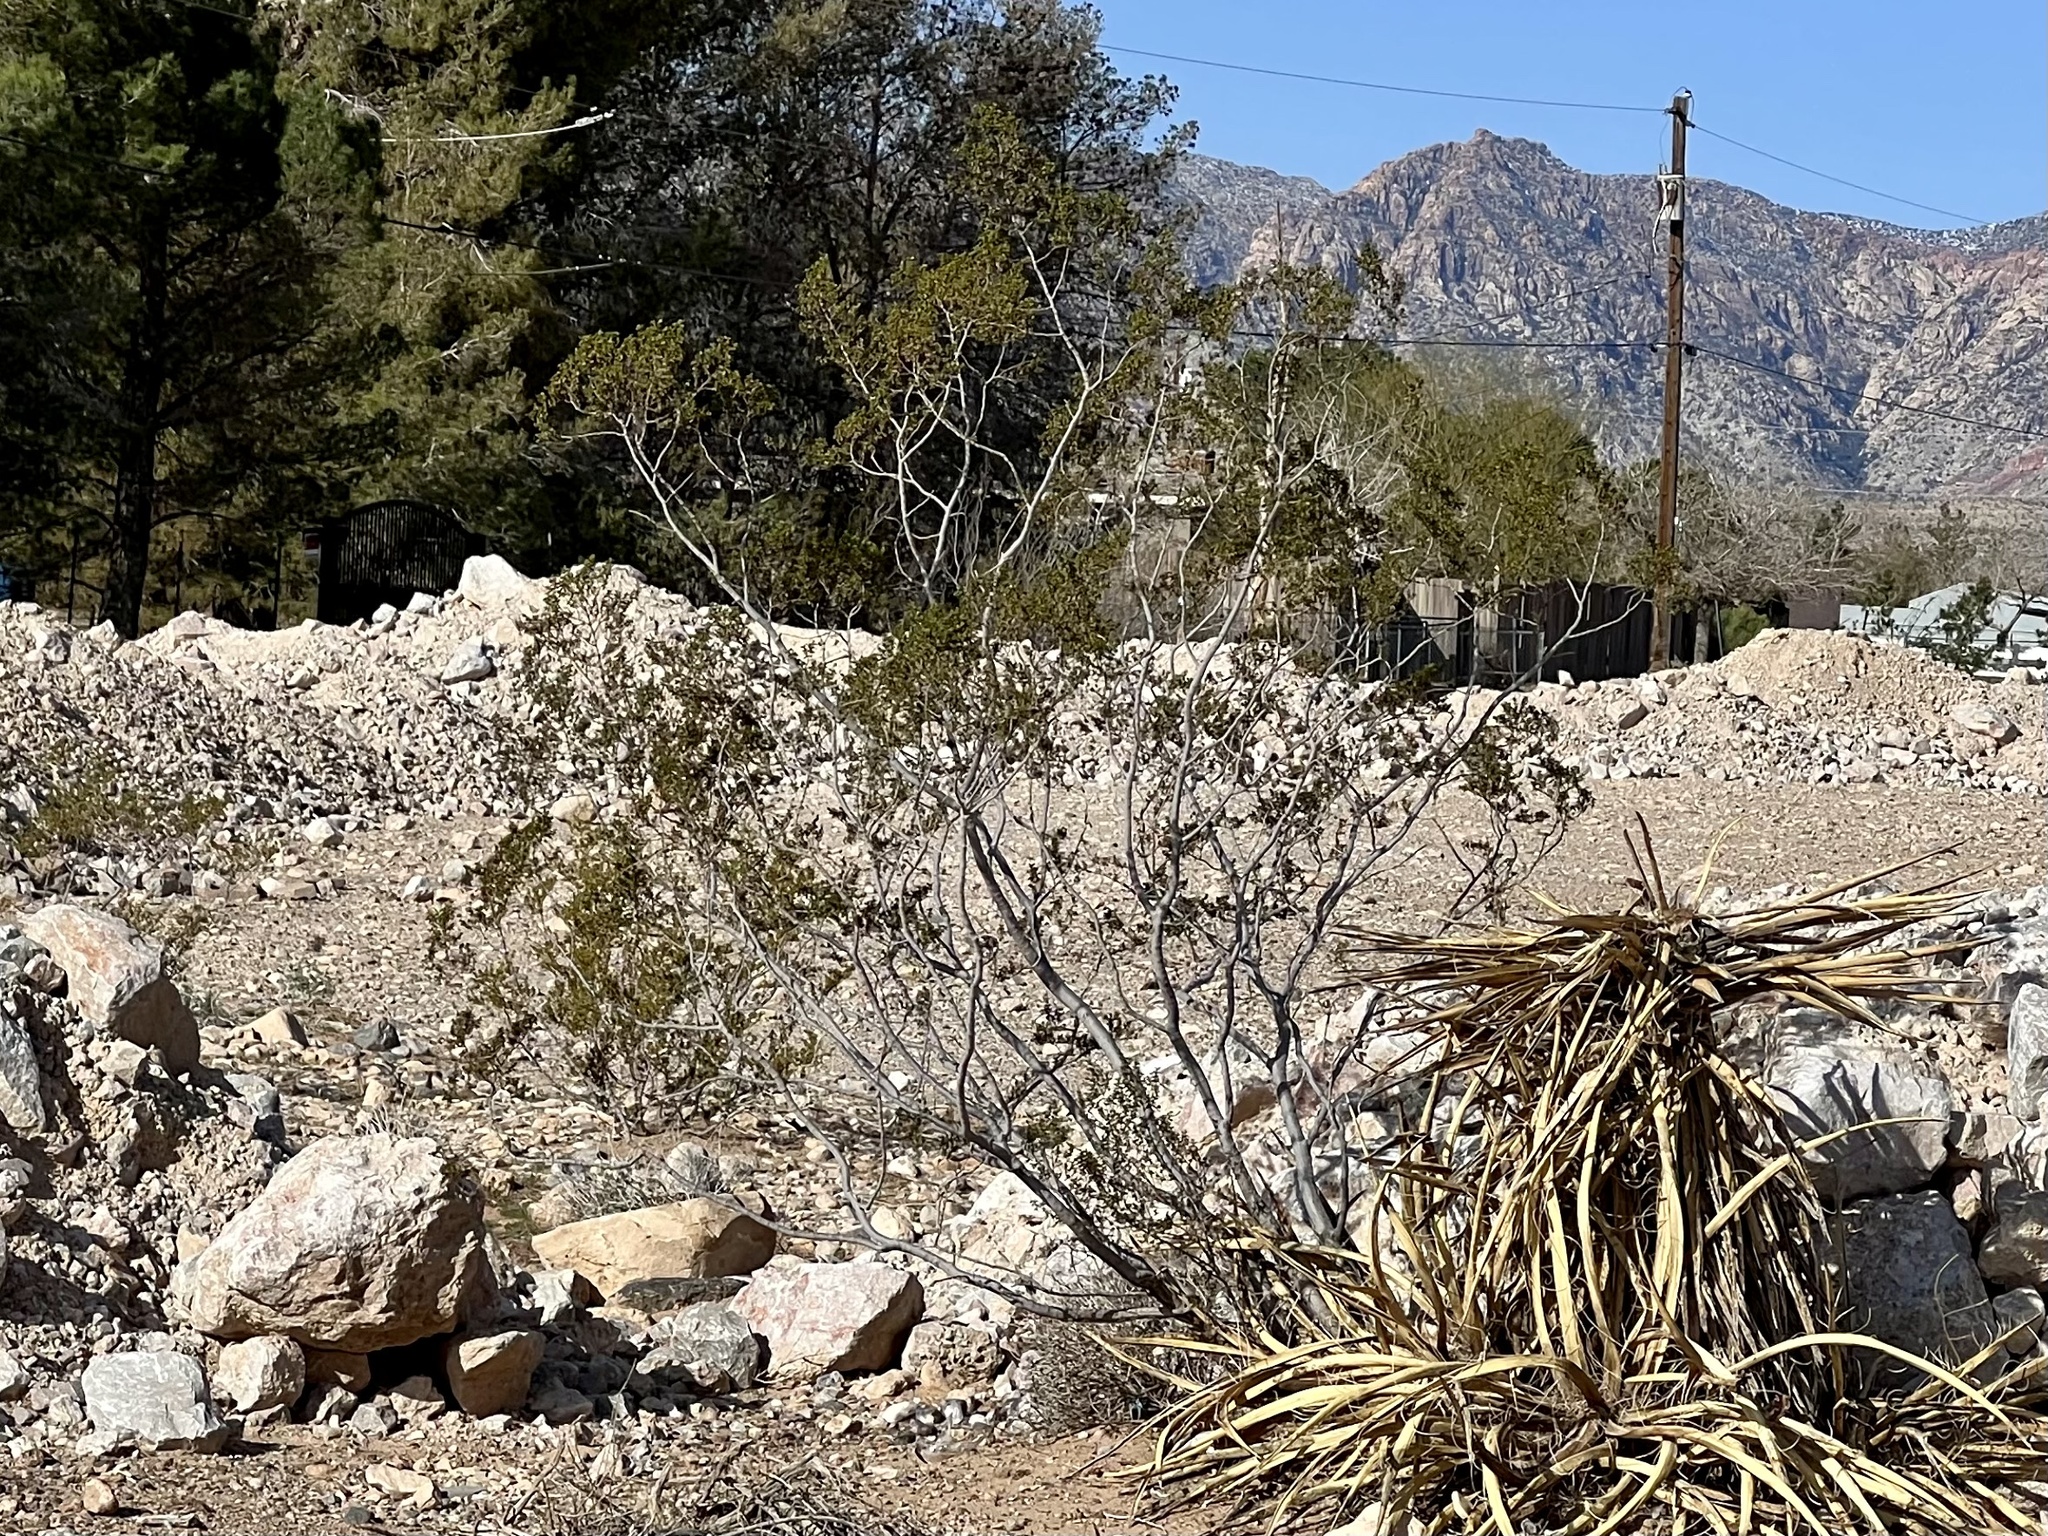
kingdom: Plantae
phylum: Tracheophyta
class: Magnoliopsida
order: Zygophyllales
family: Zygophyllaceae
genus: Larrea
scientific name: Larrea tridentata
